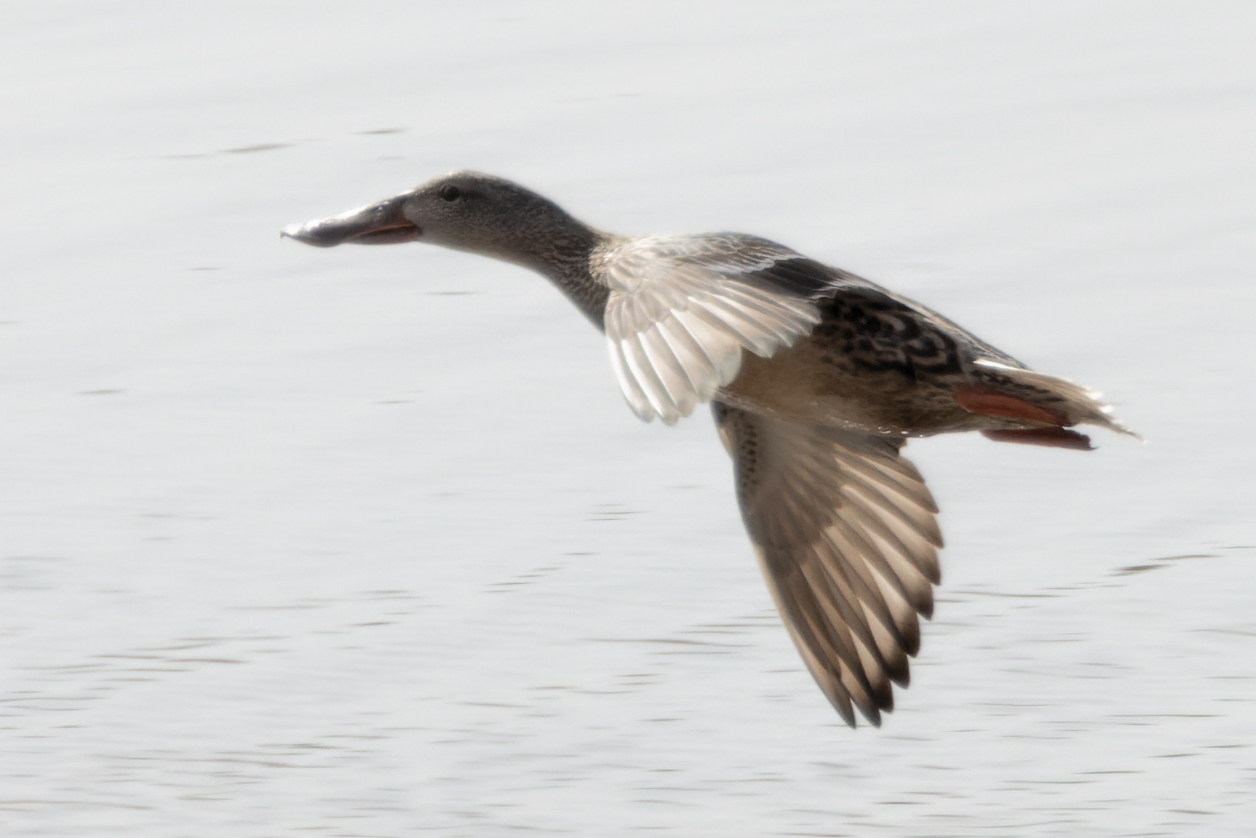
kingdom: Animalia
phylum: Chordata
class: Aves
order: Anseriformes
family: Anatidae
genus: Spatula
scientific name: Spatula clypeata
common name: Northern shoveler
